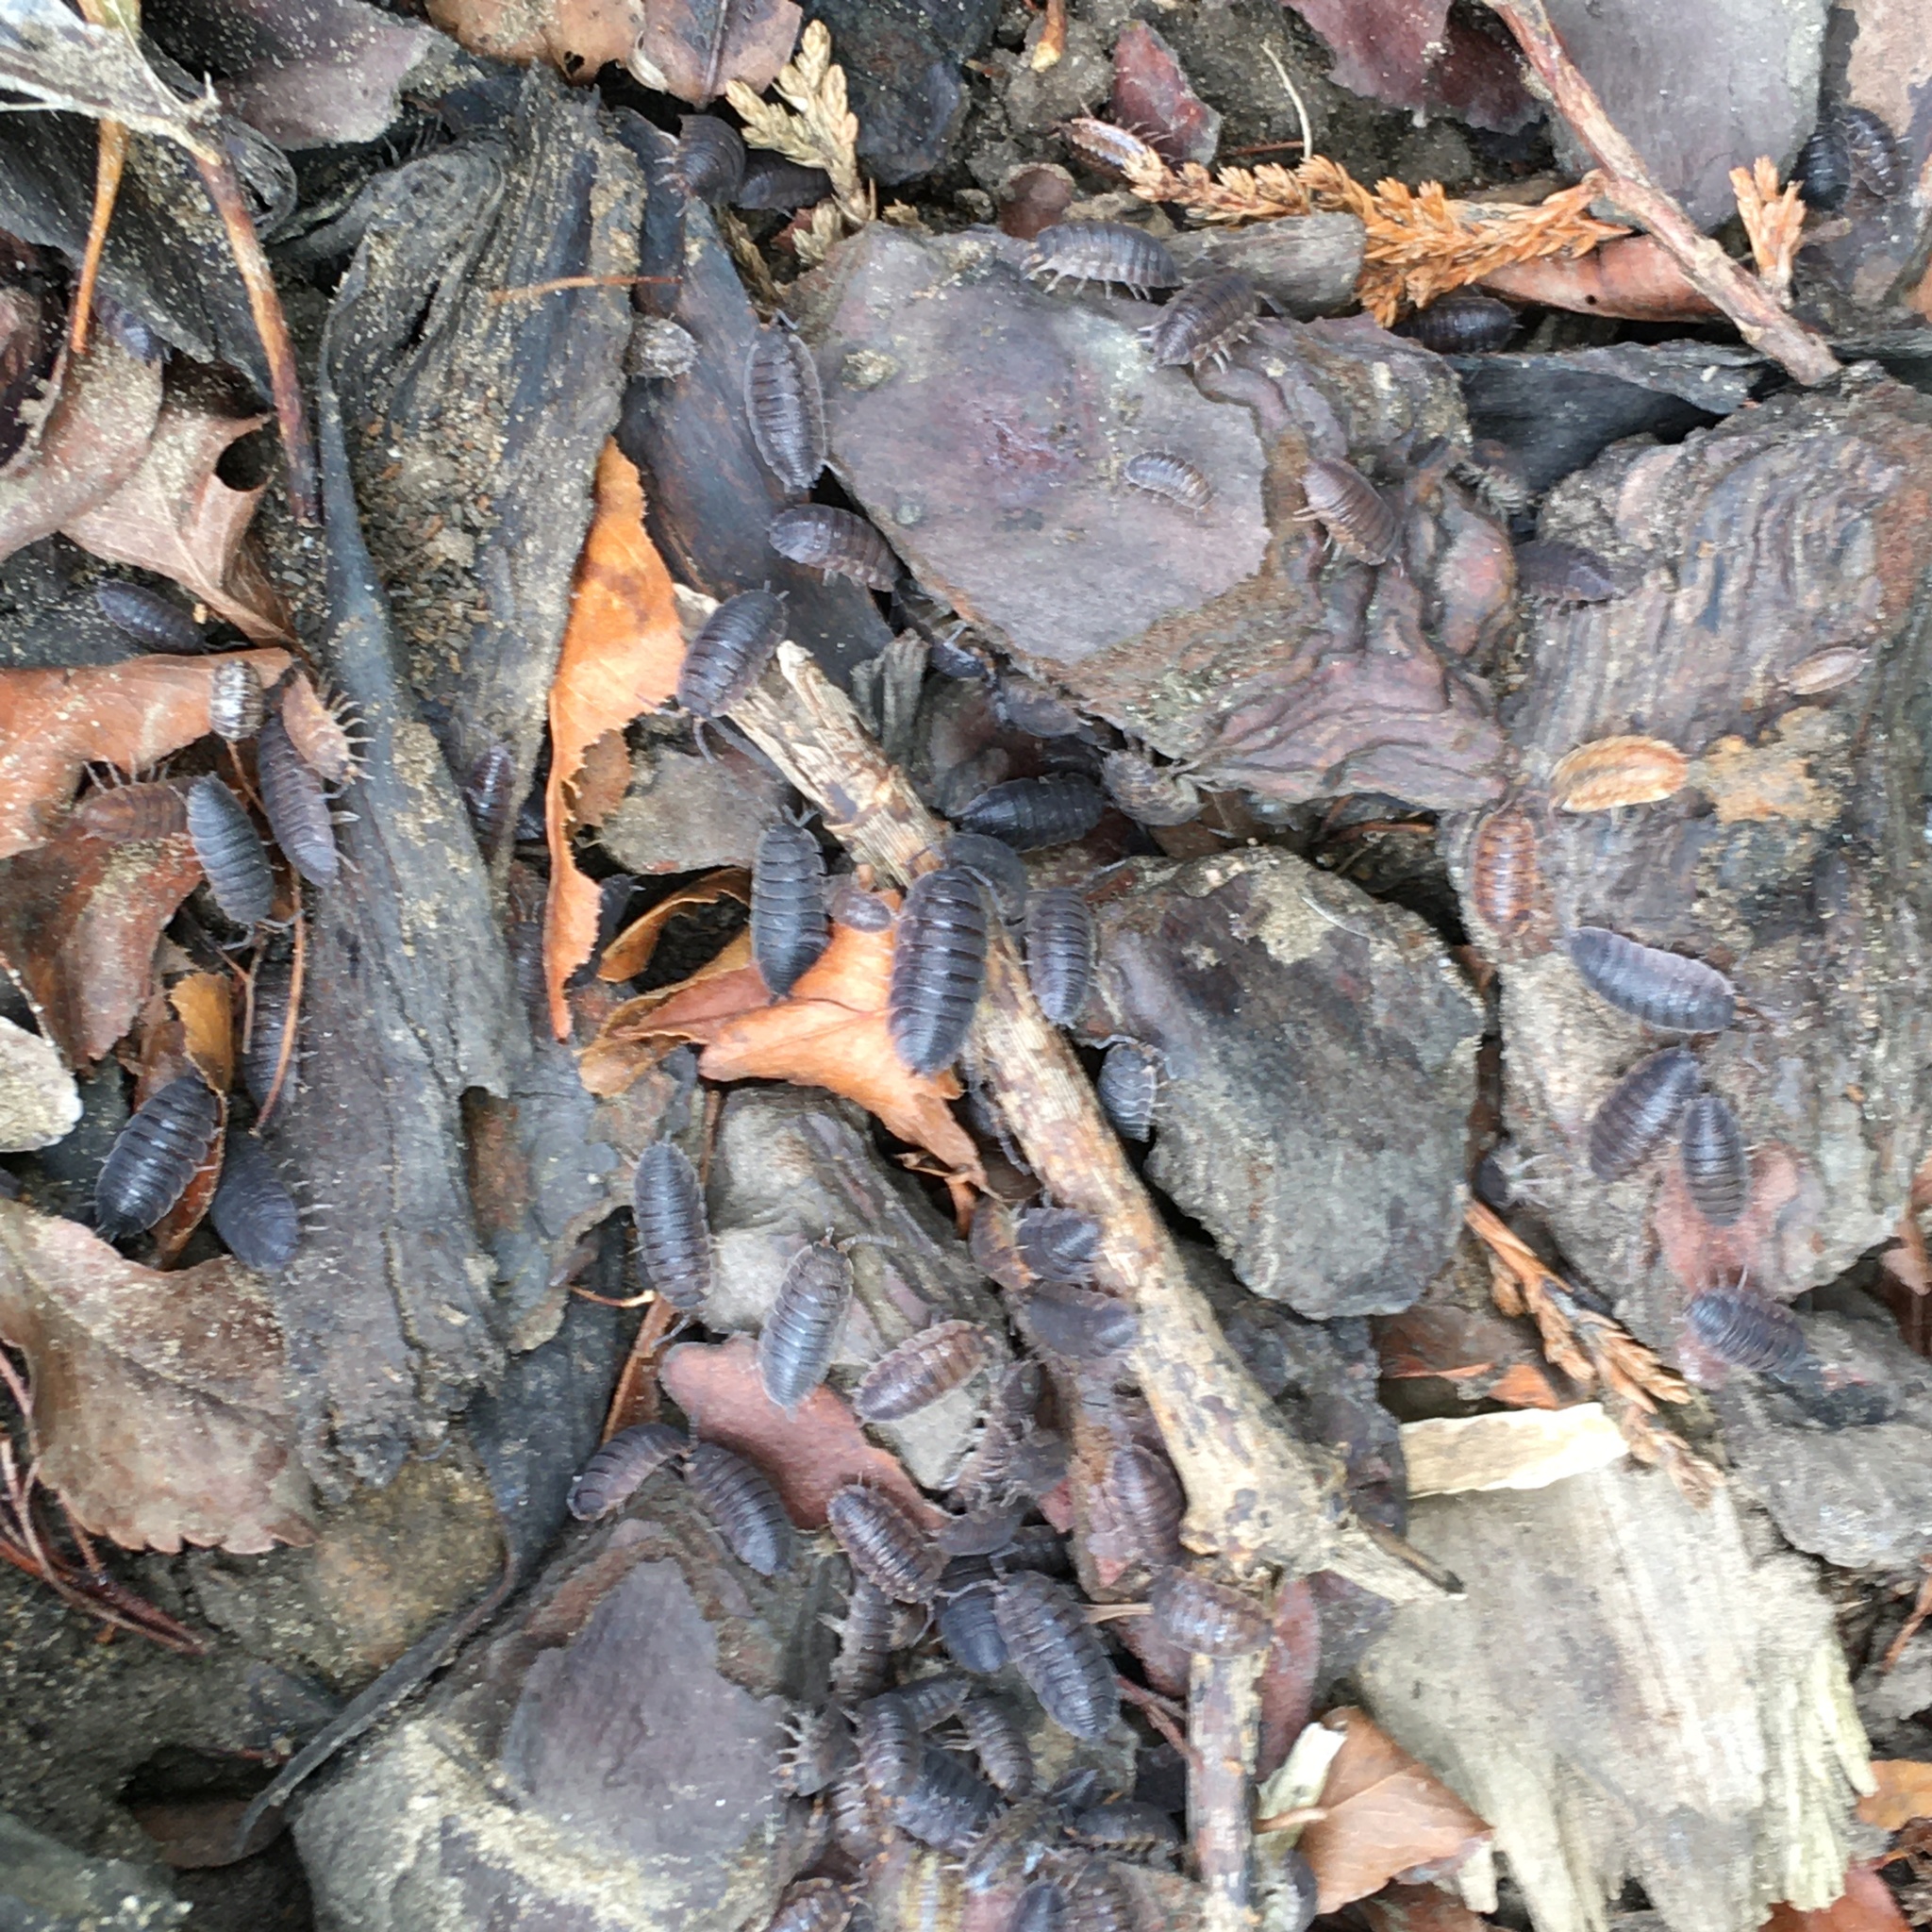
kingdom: Animalia
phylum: Arthropoda
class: Malacostraca
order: Isopoda
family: Porcellionidae
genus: Porcellio
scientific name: Porcellio scaber
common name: Common rough woodlouse
